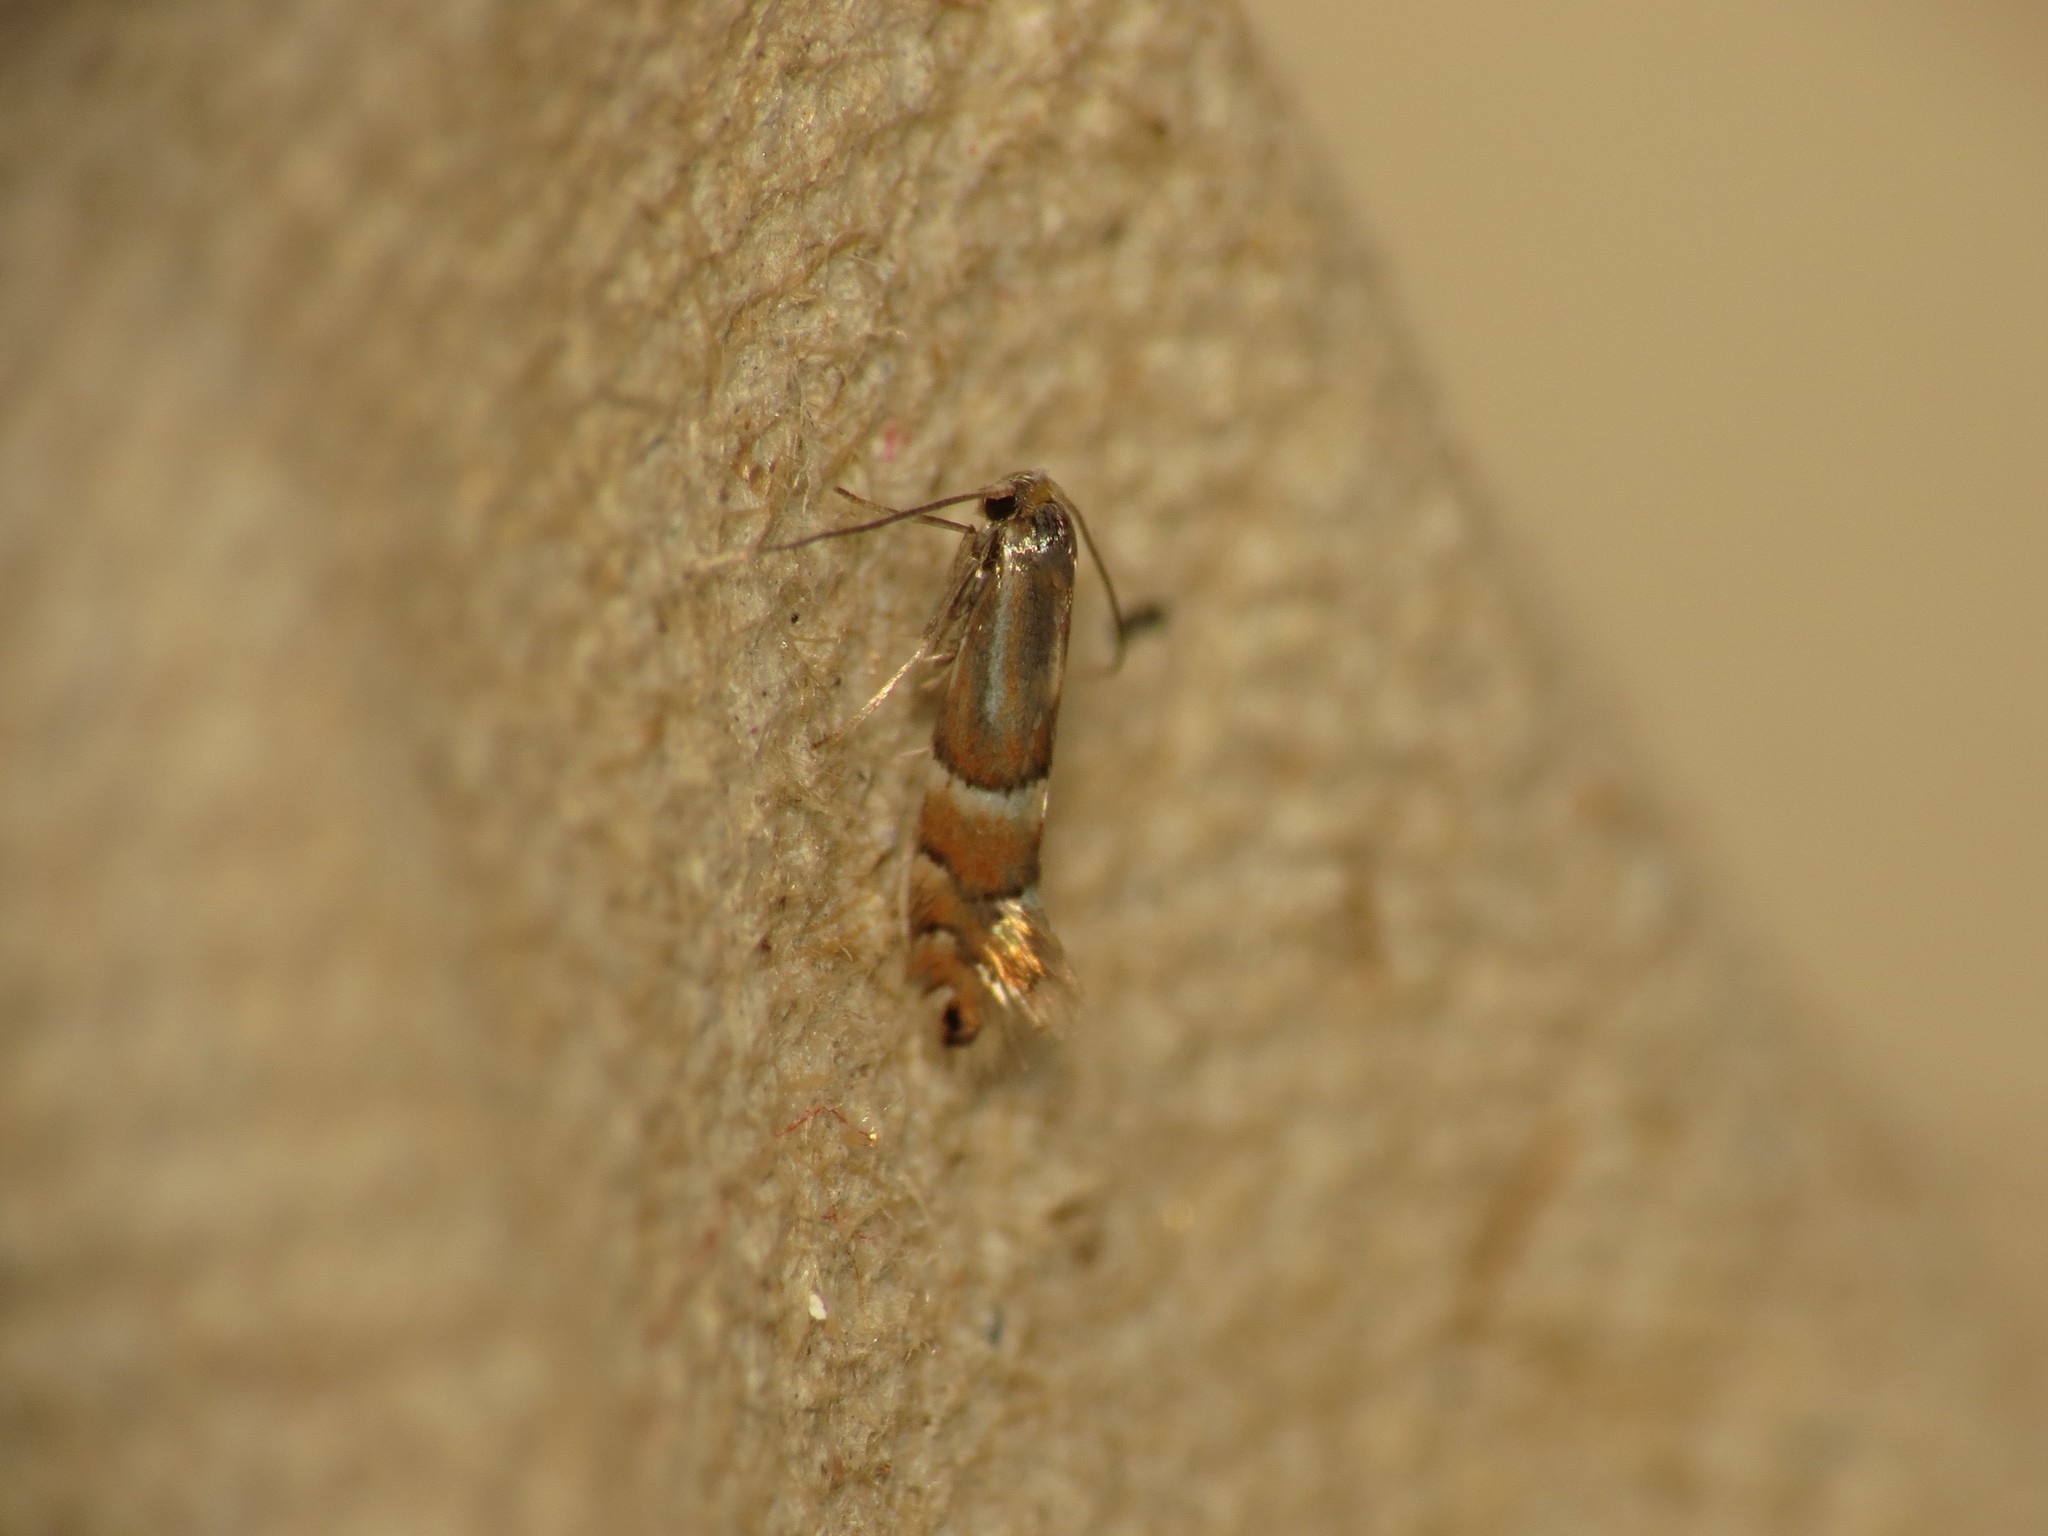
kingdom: Animalia
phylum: Arthropoda
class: Insecta
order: Lepidoptera
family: Gracillariidae
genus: Phyllonorycter
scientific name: Phyllonorycter ulmifoliella
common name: Red birch midget
